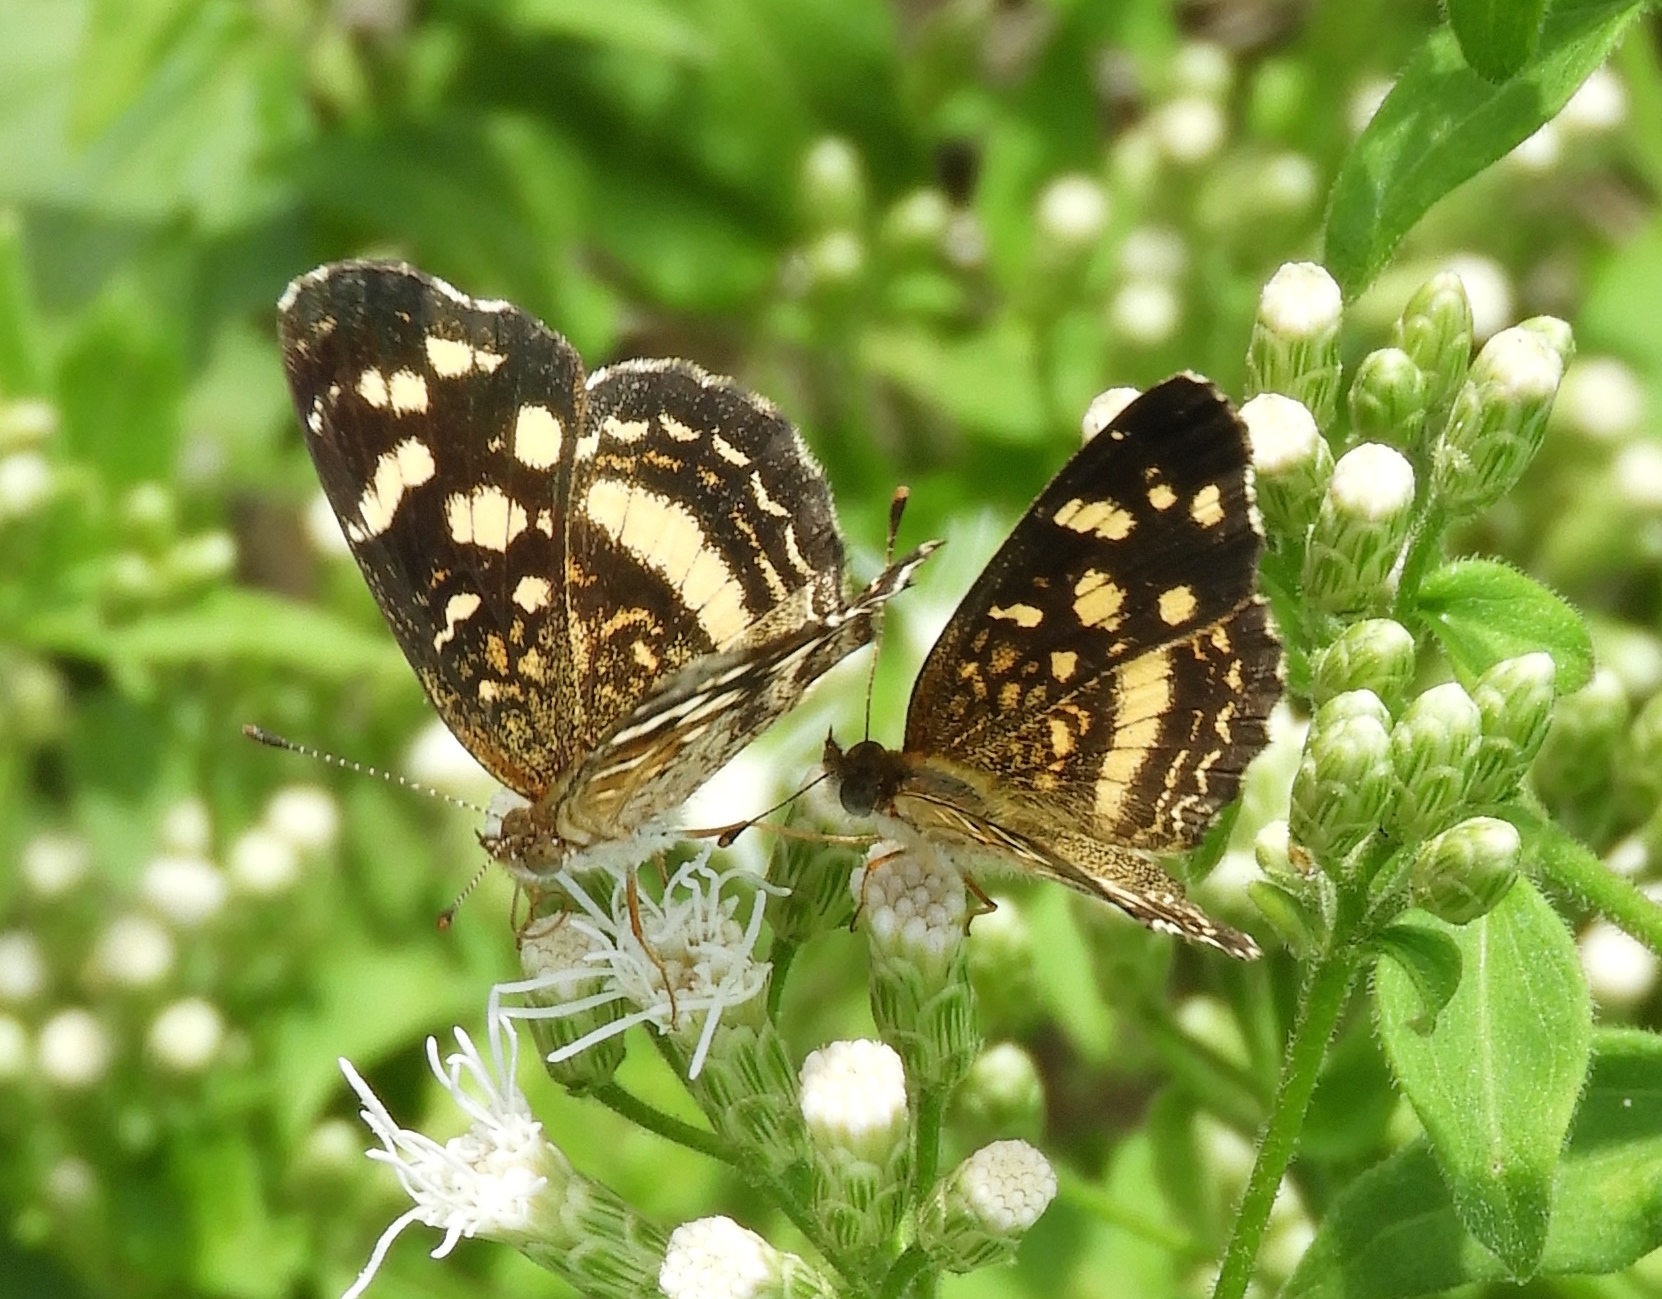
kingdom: Animalia
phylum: Arthropoda
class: Insecta
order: Lepidoptera
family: Nymphalidae
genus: Anthanassa
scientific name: Anthanassa
